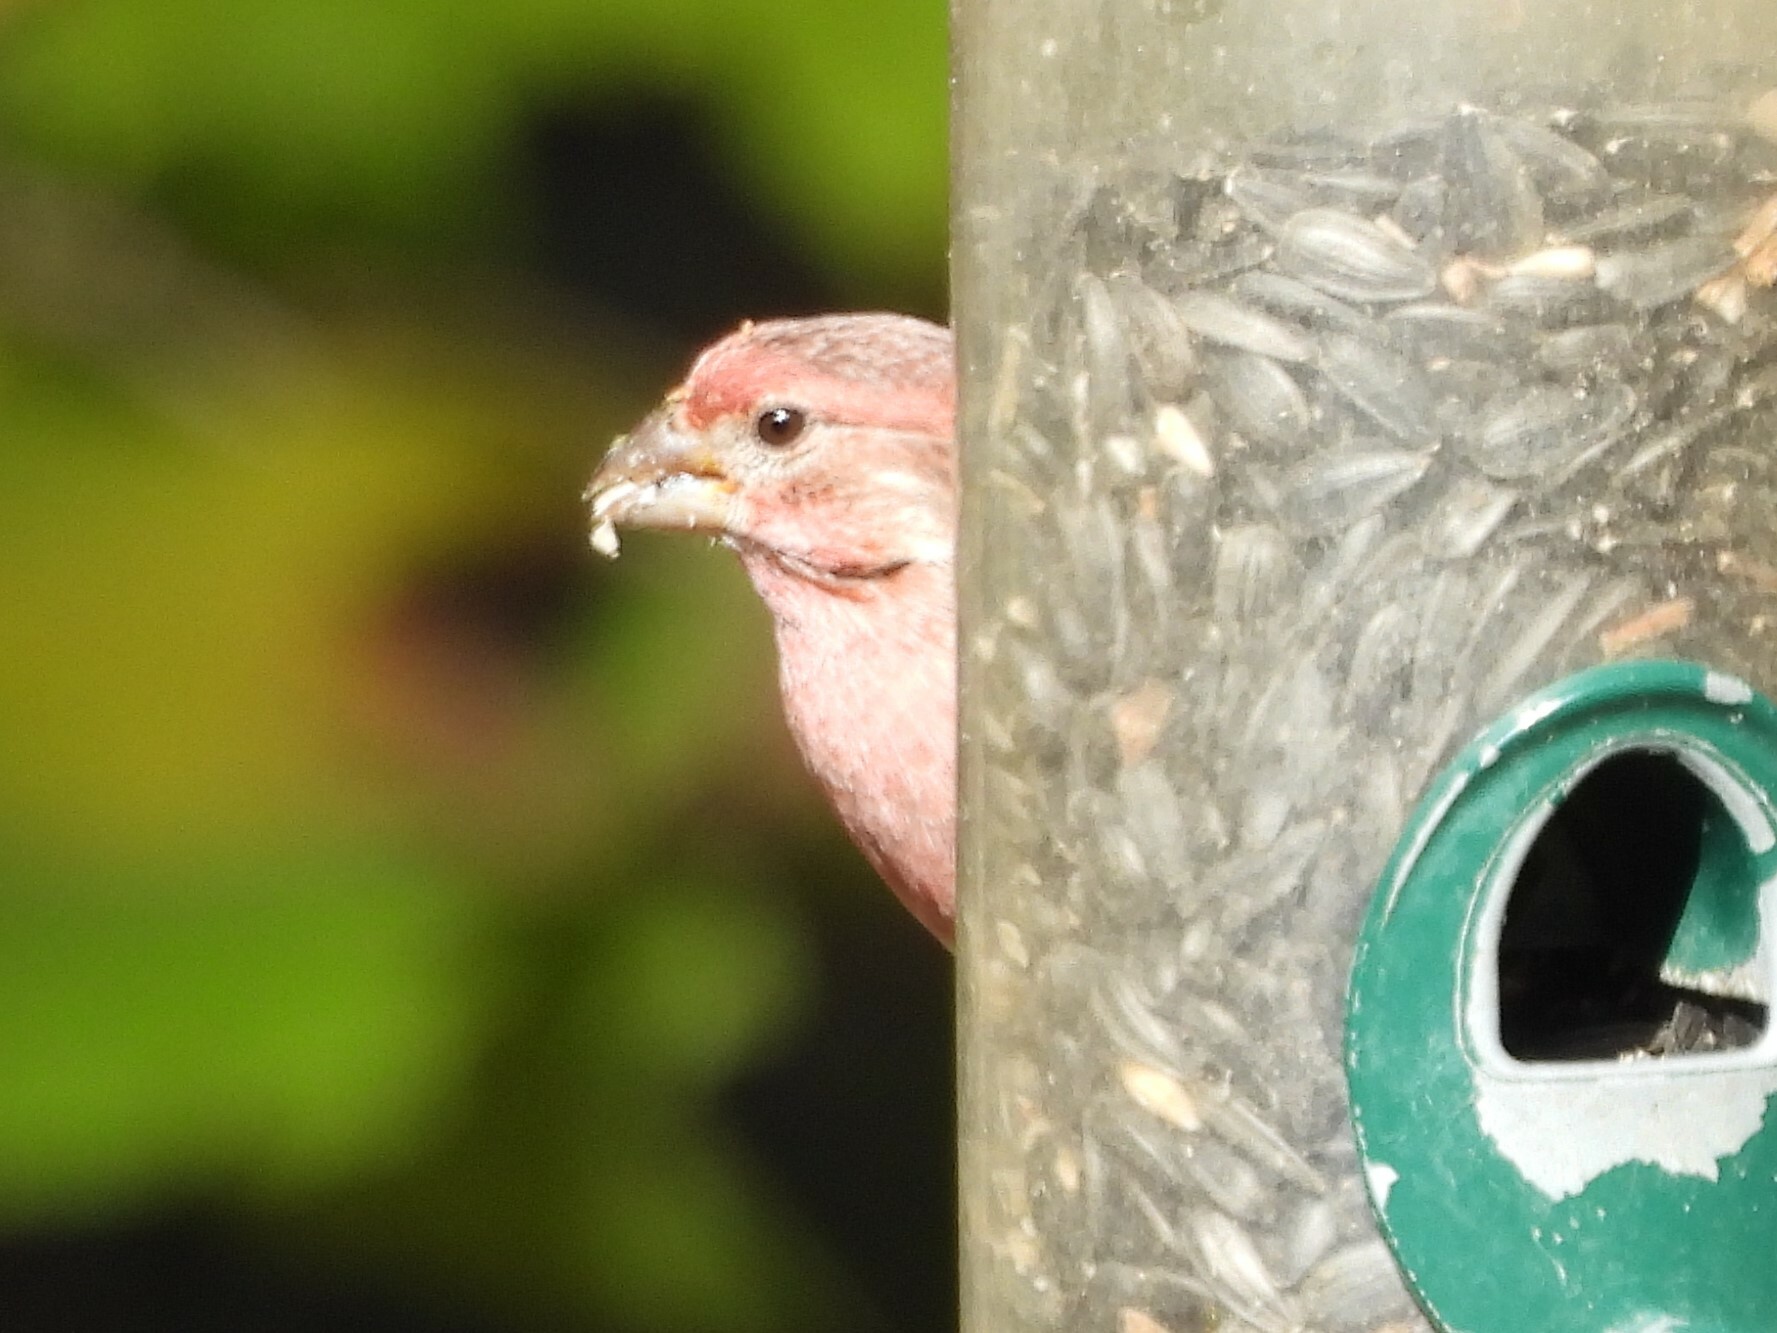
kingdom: Animalia
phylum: Chordata
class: Aves
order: Passeriformes
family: Fringillidae
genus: Haemorhous
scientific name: Haemorhous mexicanus
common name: House finch
